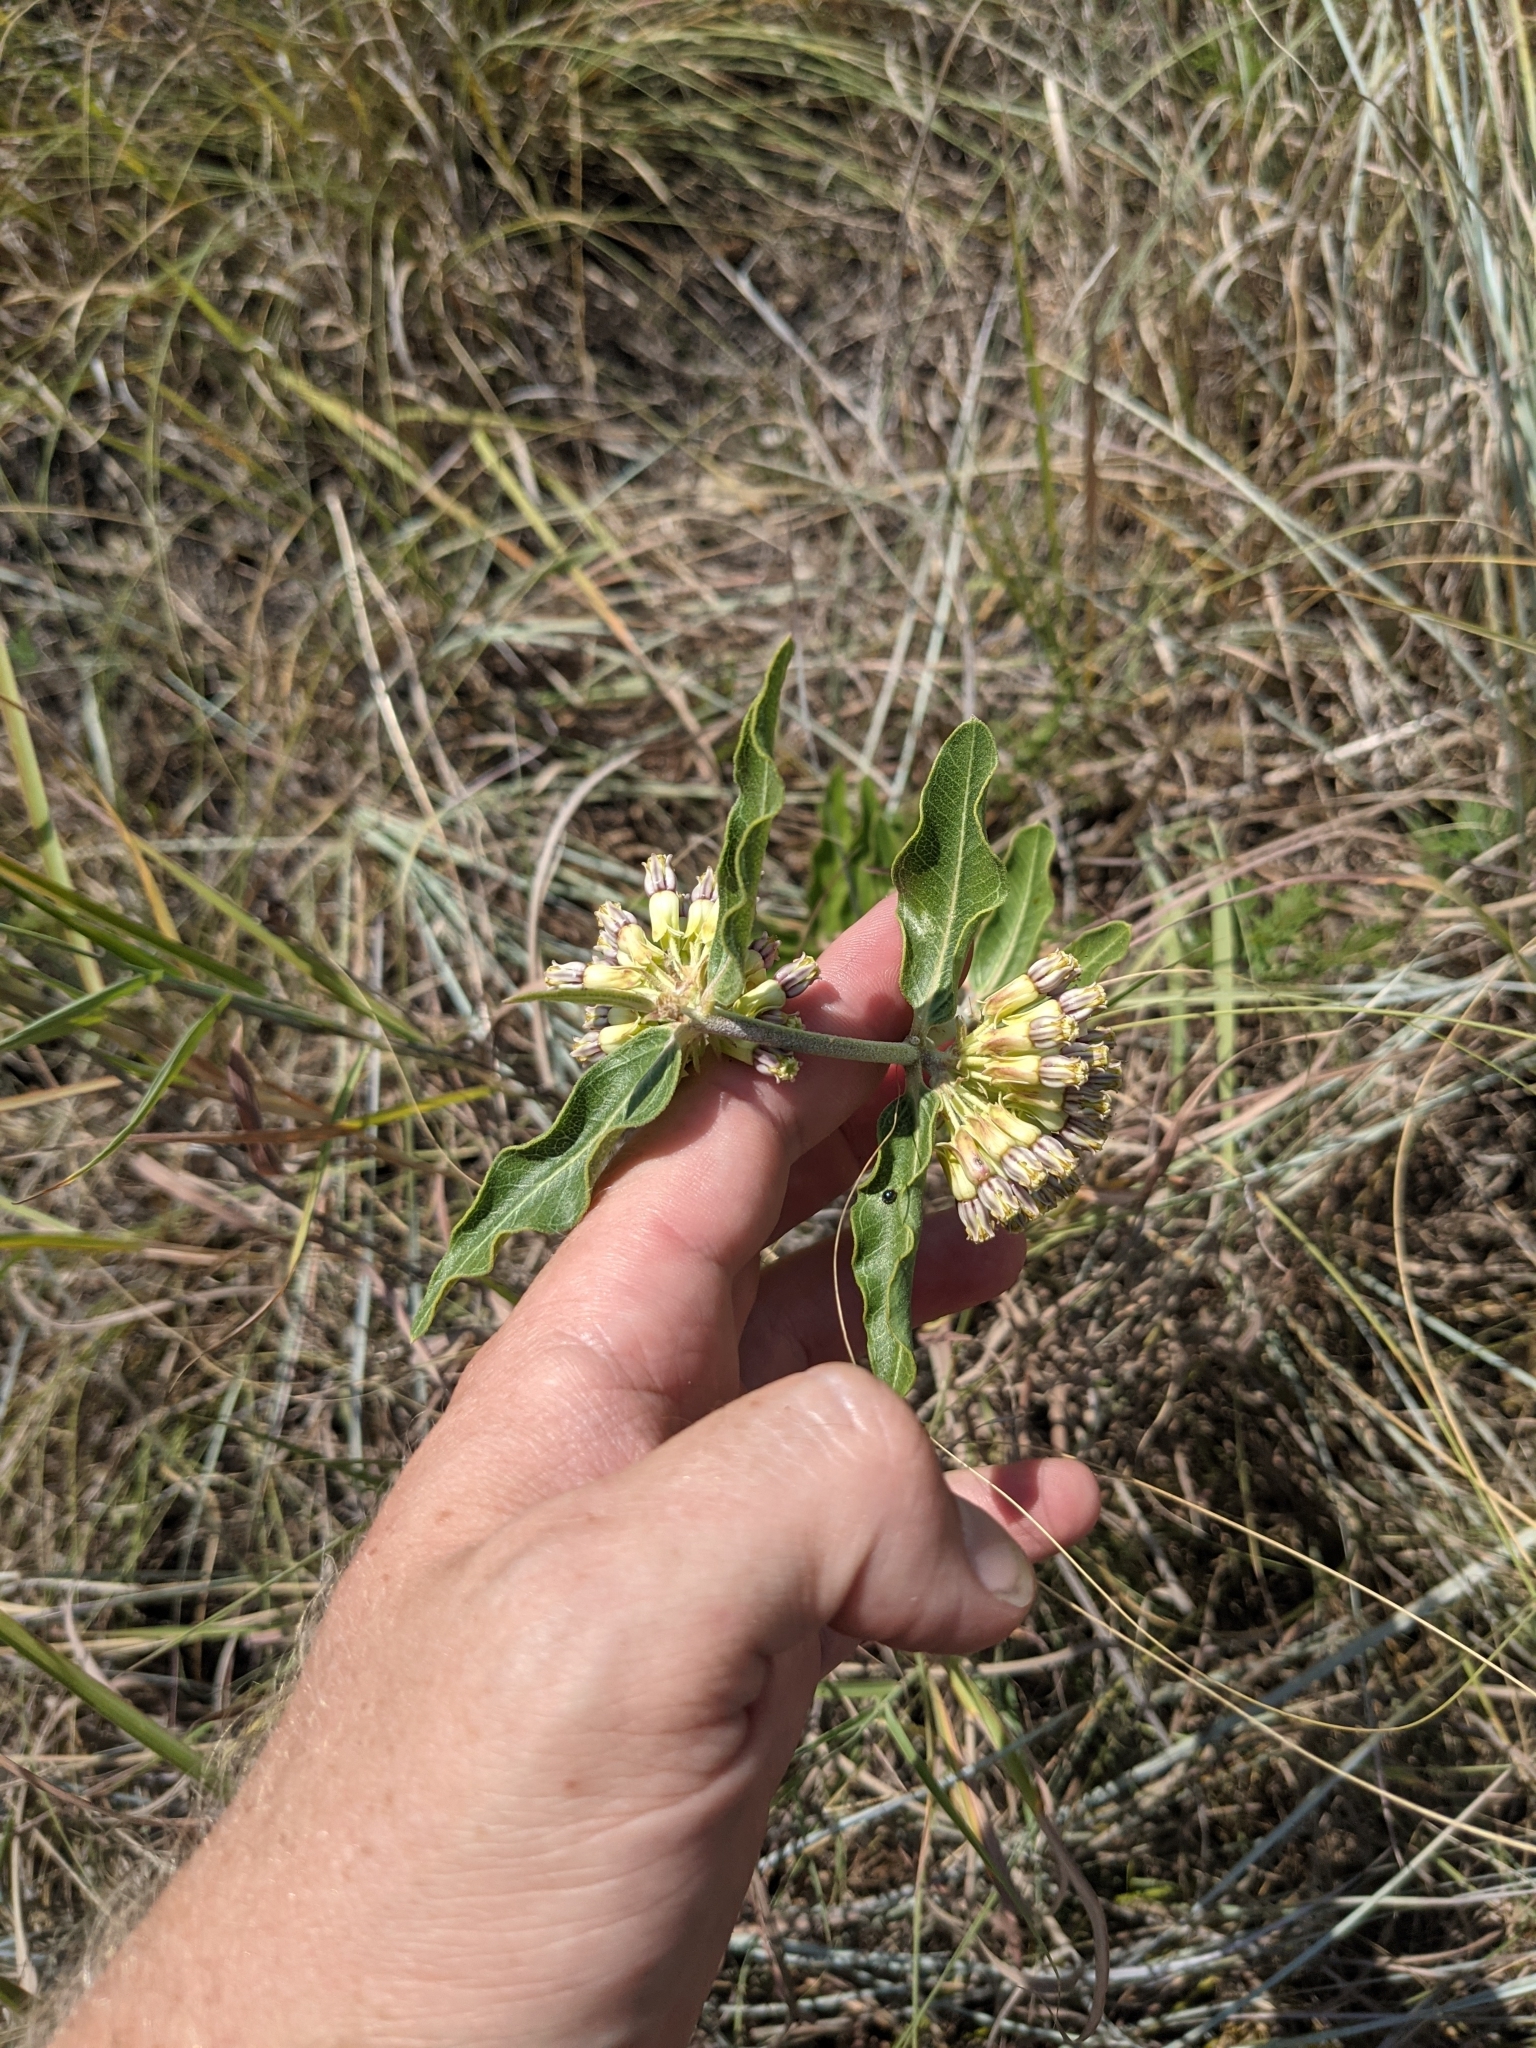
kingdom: Plantae
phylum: Tracheophyta
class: Magnoliopsida
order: Gentianales
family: Apocynaceae
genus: Asclepias
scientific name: Asclepias viridiflora
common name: Green comet milkweed
